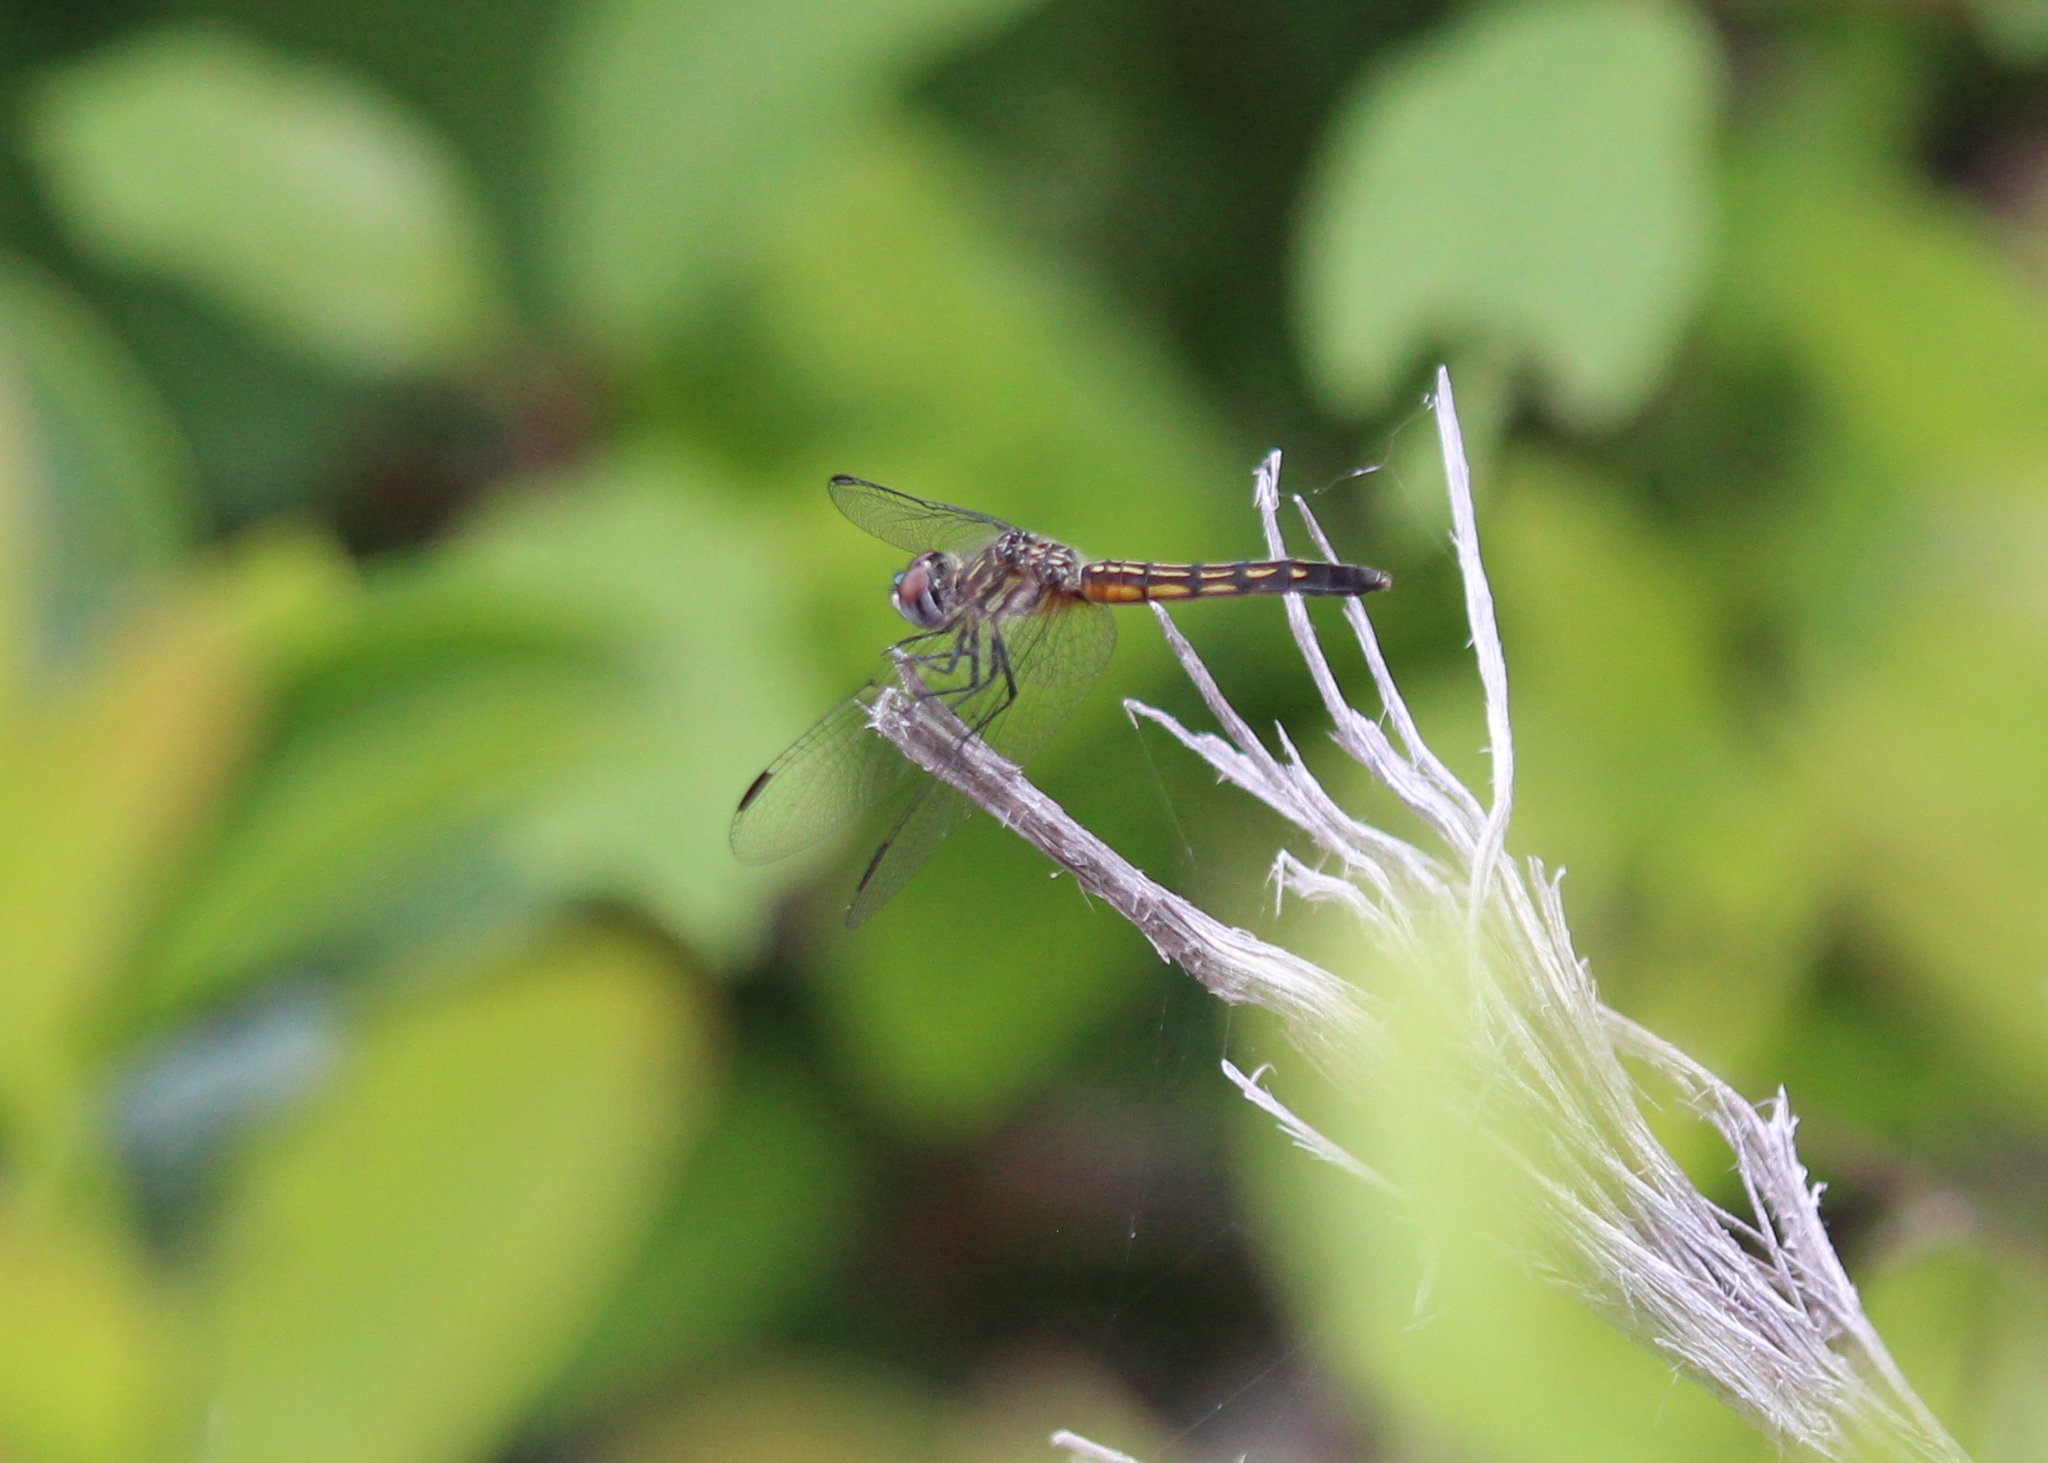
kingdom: Animalia
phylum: Arthropoda
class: Insecta
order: Odonata
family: Libellulidae
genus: Pachydiplax
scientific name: Pachydiplax longipennis
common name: Blue dasher
